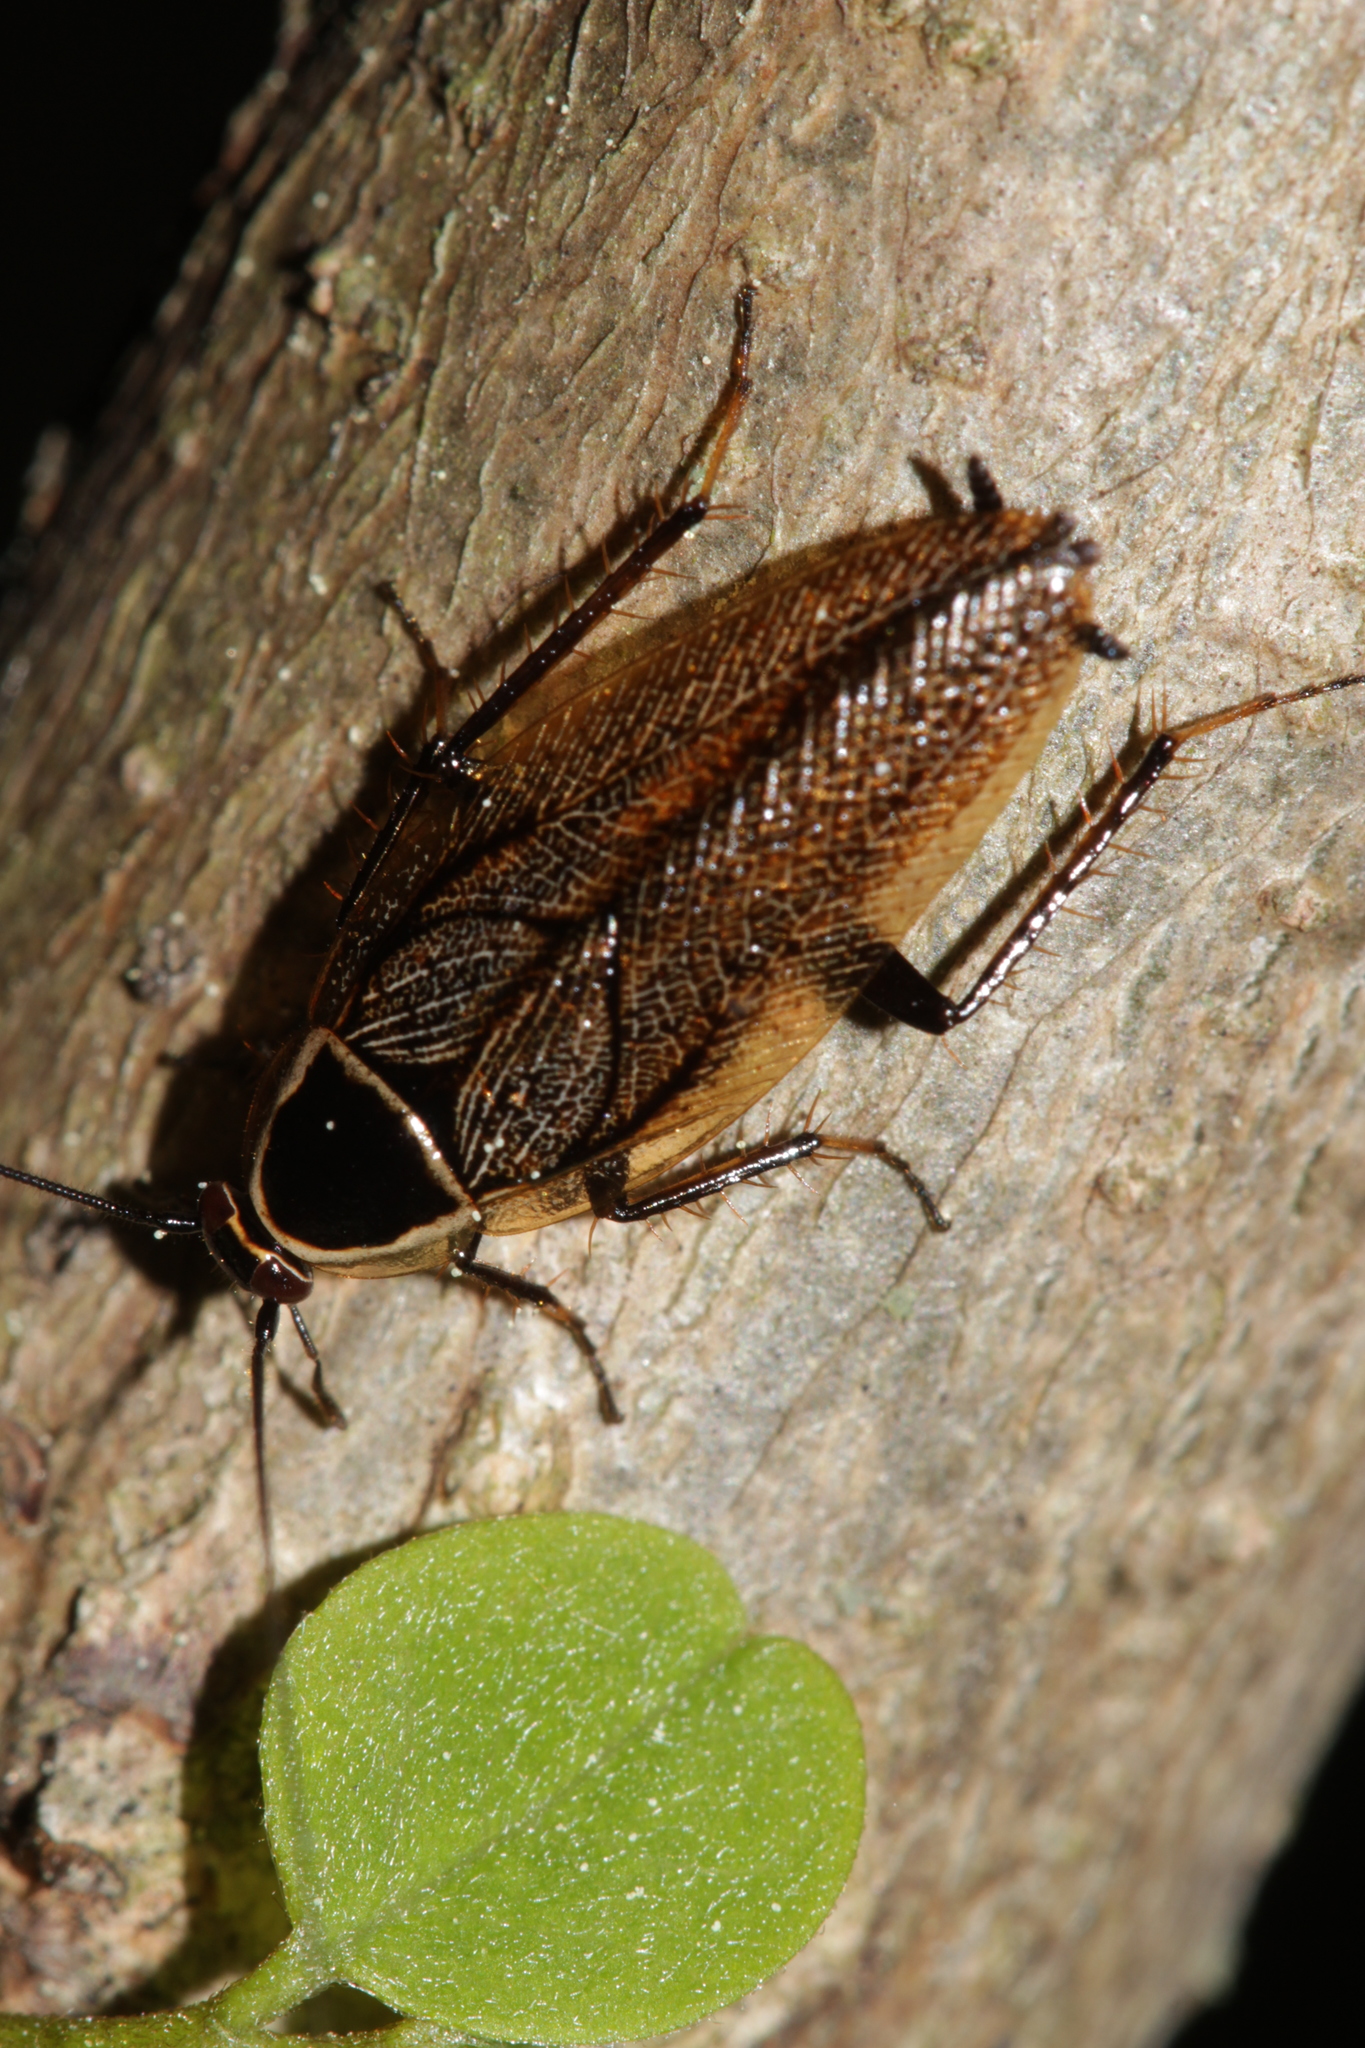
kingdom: Animalia
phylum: Arthropoda
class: Insecta
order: Blattodea
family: Ectobiidae
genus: Ectobius
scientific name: Ectobius sylvestris
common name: Forest cockroach
